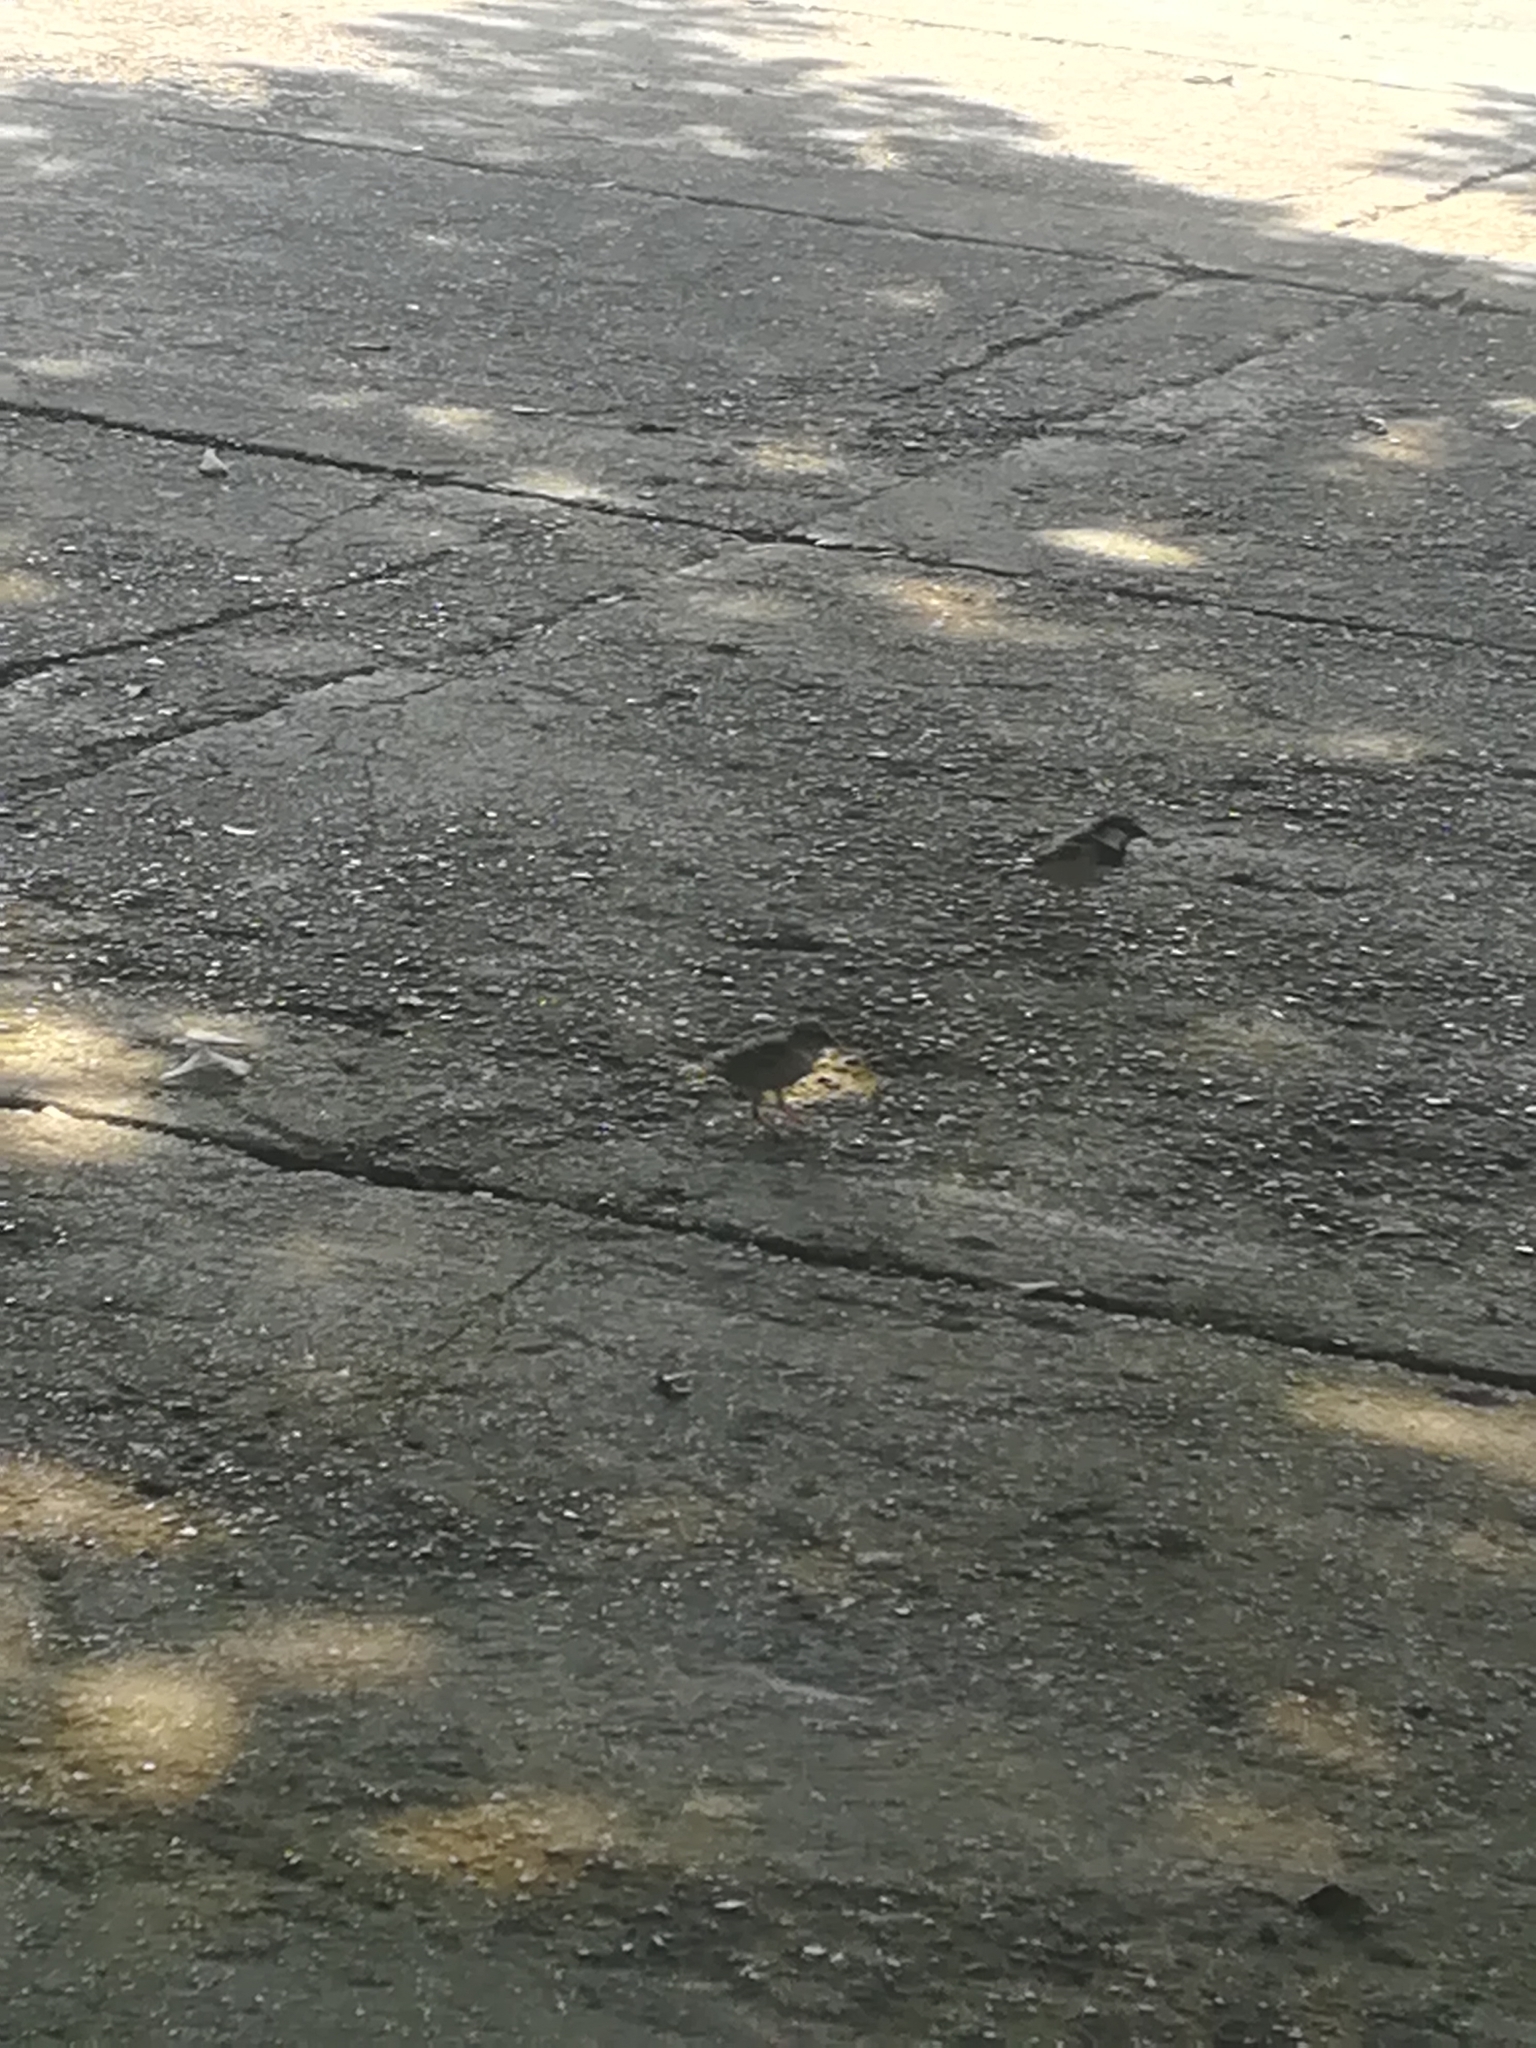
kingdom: Animalia
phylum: Chordata
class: Aves
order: Passeriformes
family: Passeridae
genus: Passer
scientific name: Passer italiae
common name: Italian sparrow
